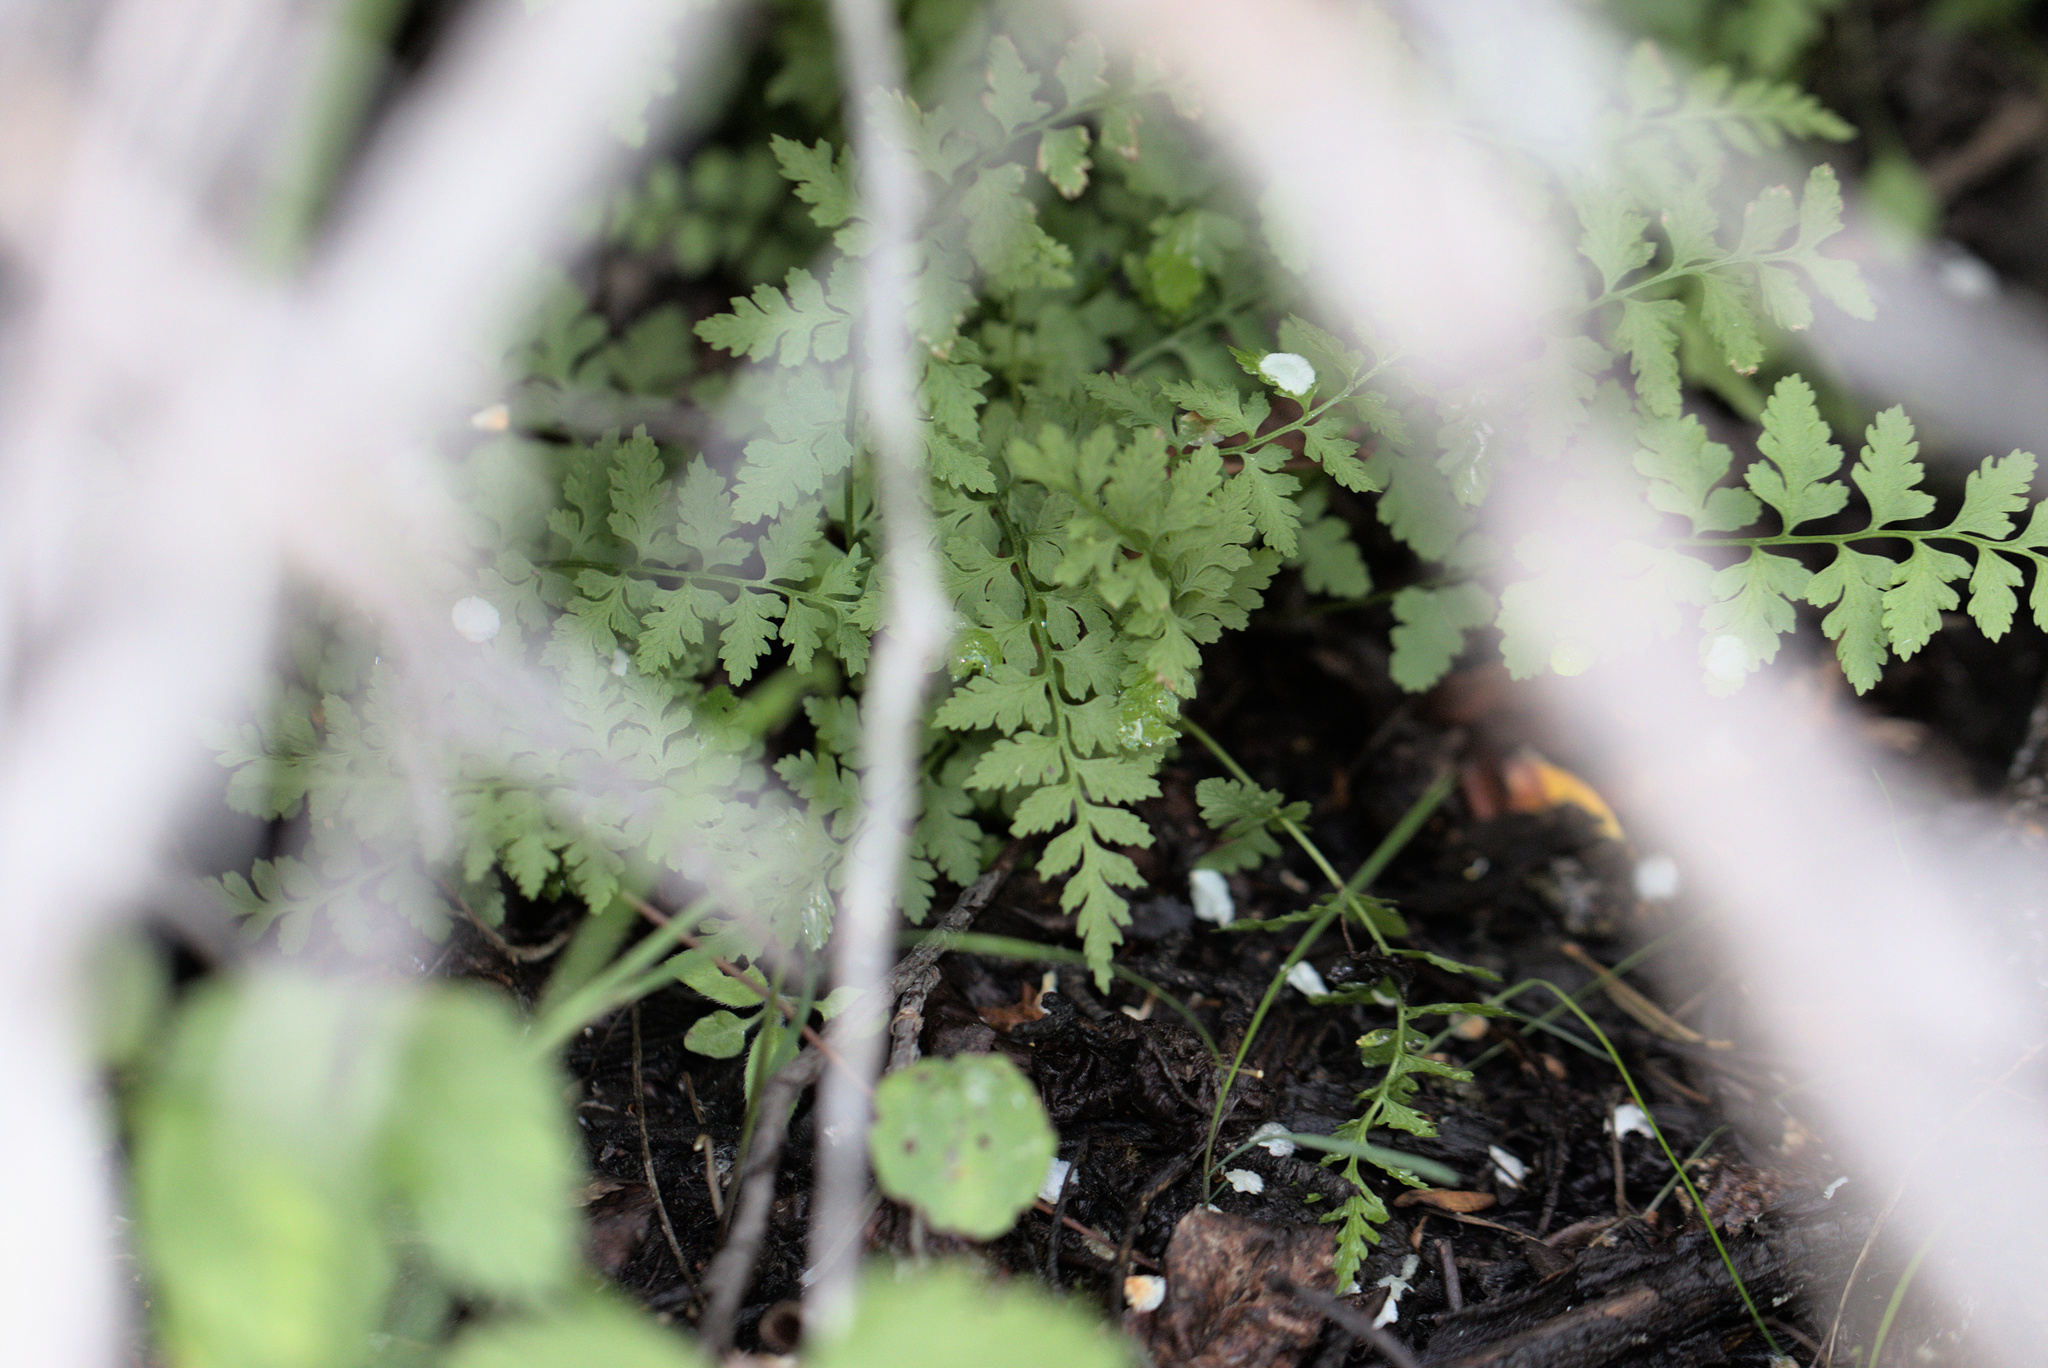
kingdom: Plantae
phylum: Tracheophyta
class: Polypodiopsida
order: Polypodiales
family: Cystopteridaceae
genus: Cystopteris
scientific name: Cystopteris fragilis
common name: Brittle bladder fern
